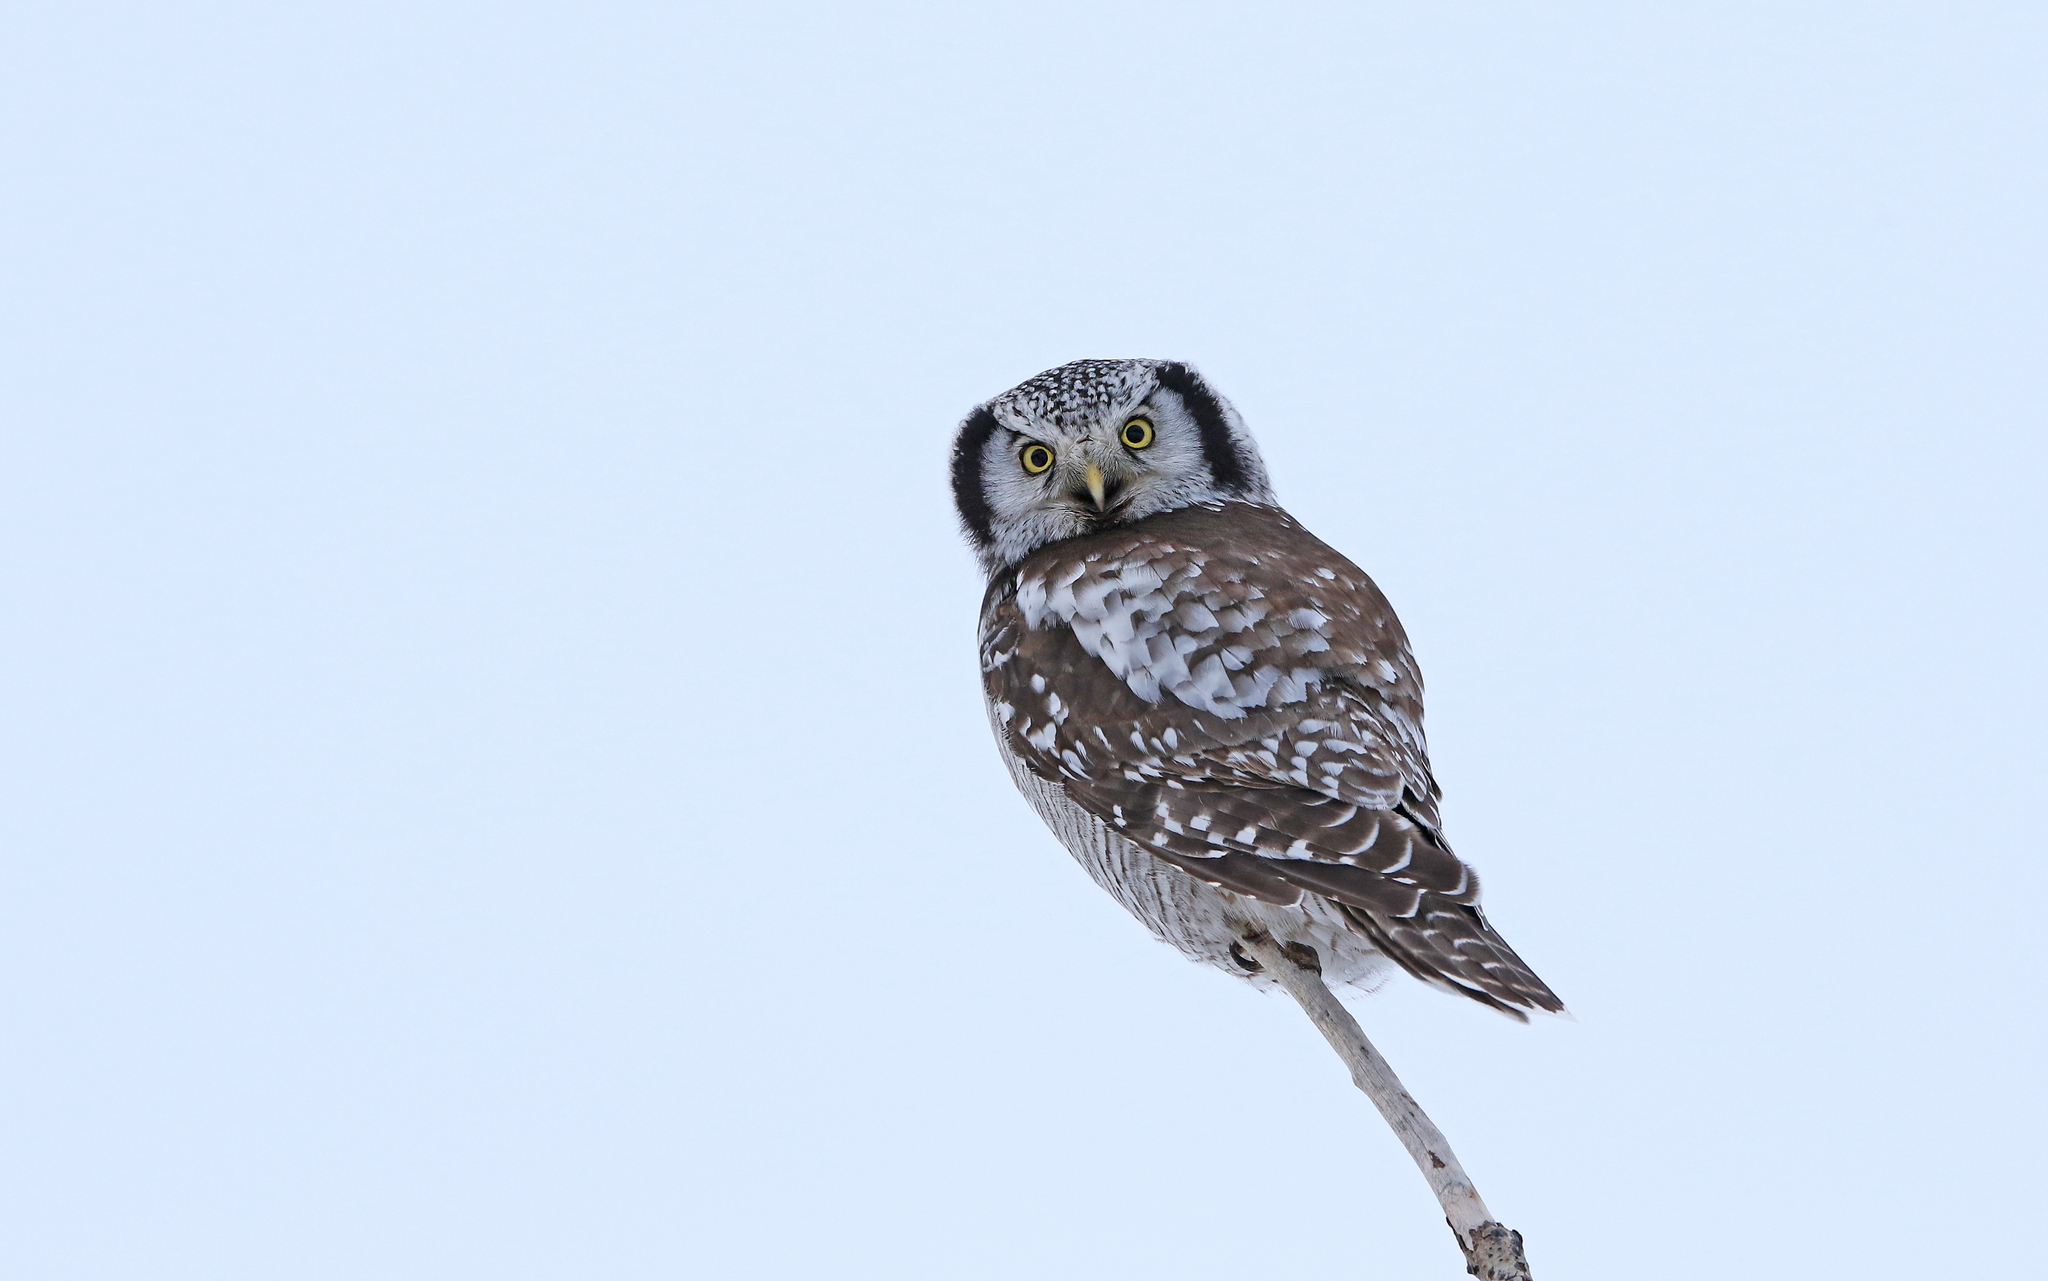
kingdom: Animalia
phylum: Chordata
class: Aves
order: Strigiformes
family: Strigidae
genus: Surnia
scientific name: Surnia ulula
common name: Northern hawk-owl
